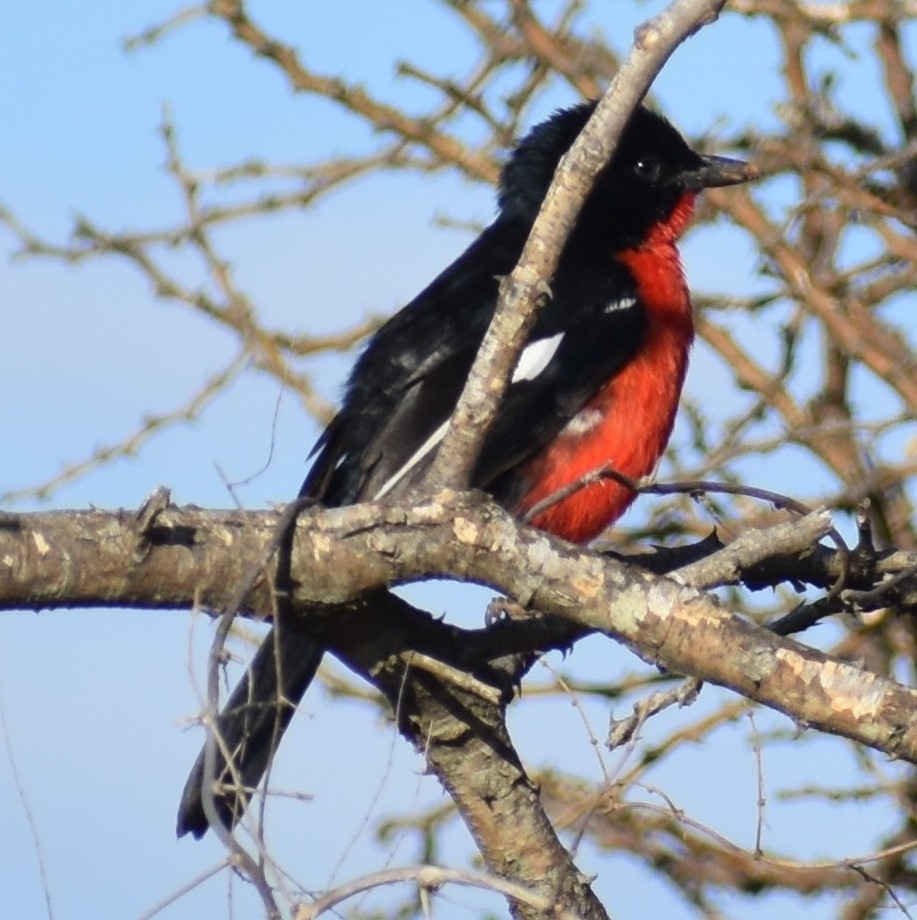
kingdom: Animalia
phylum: Chordata
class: Aves
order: Passeriformes
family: Malaconotidae
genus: Laniarius
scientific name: Laniarius atrococcineus
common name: Crimson-breasted shrike
